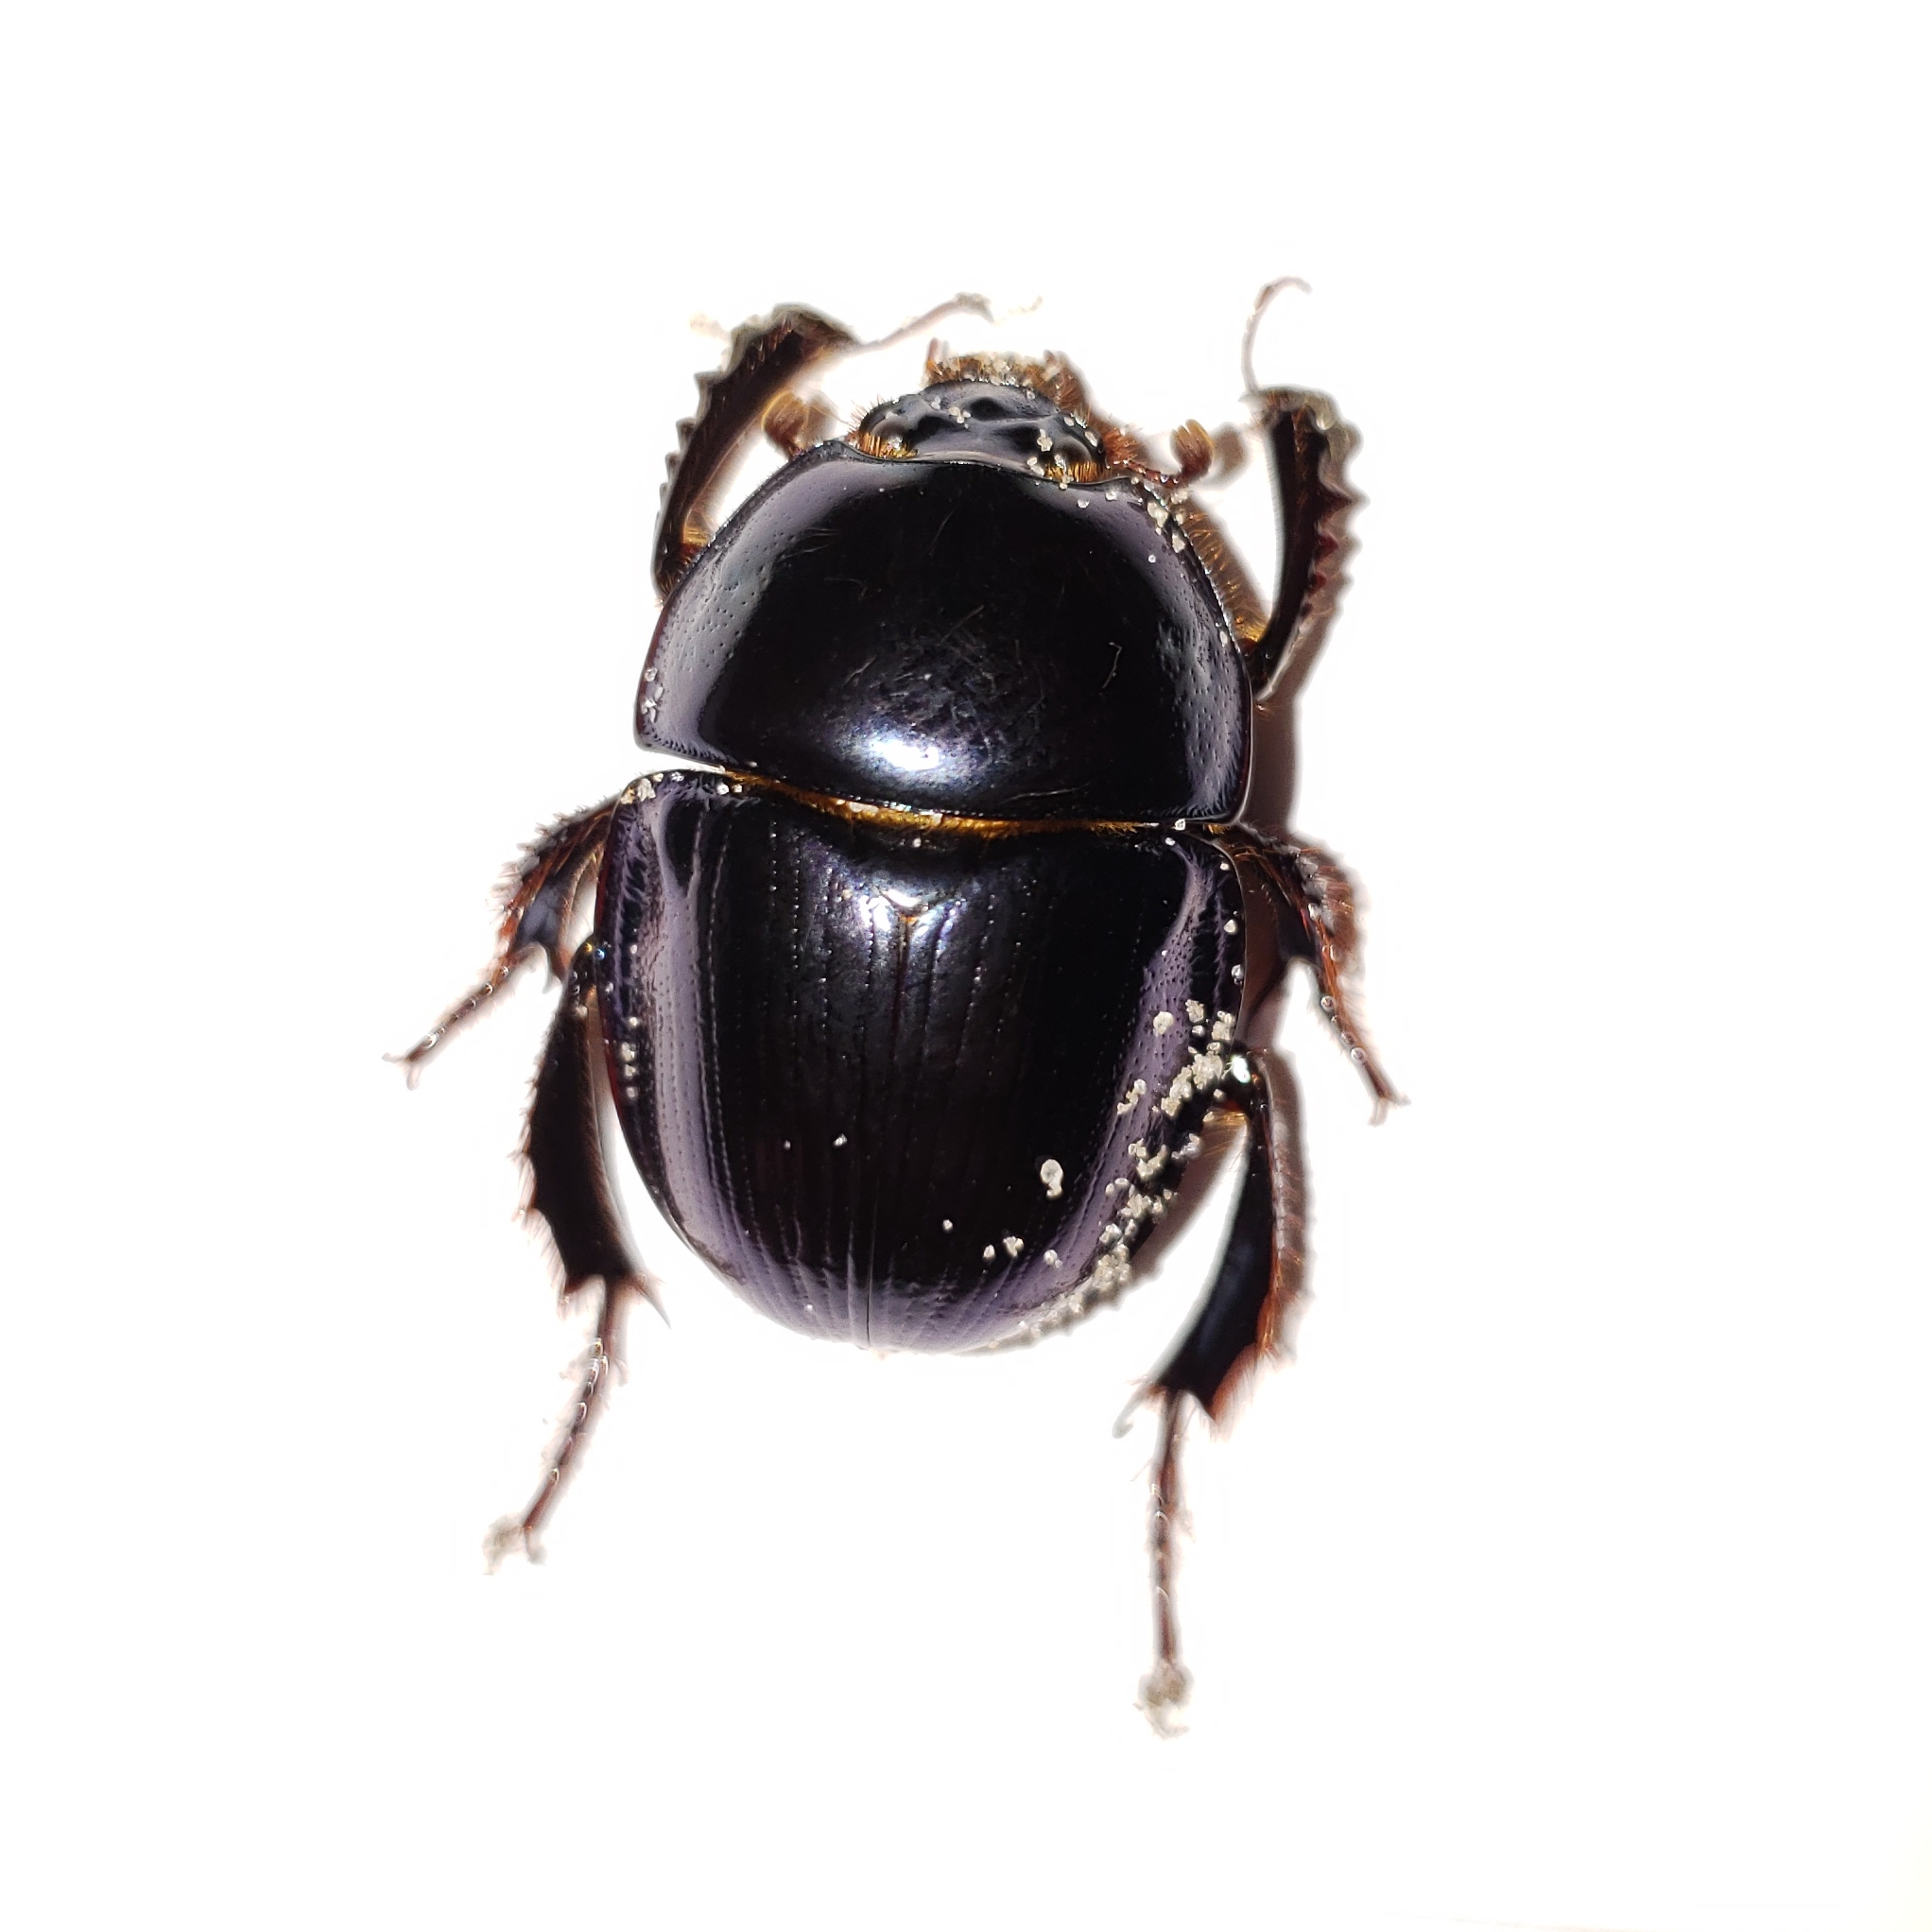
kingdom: Animalia
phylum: Arthropoda
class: Insecta
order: Coleoptera
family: Geotrupidae
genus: Peltotrupes
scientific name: Peltotrupes profundus
